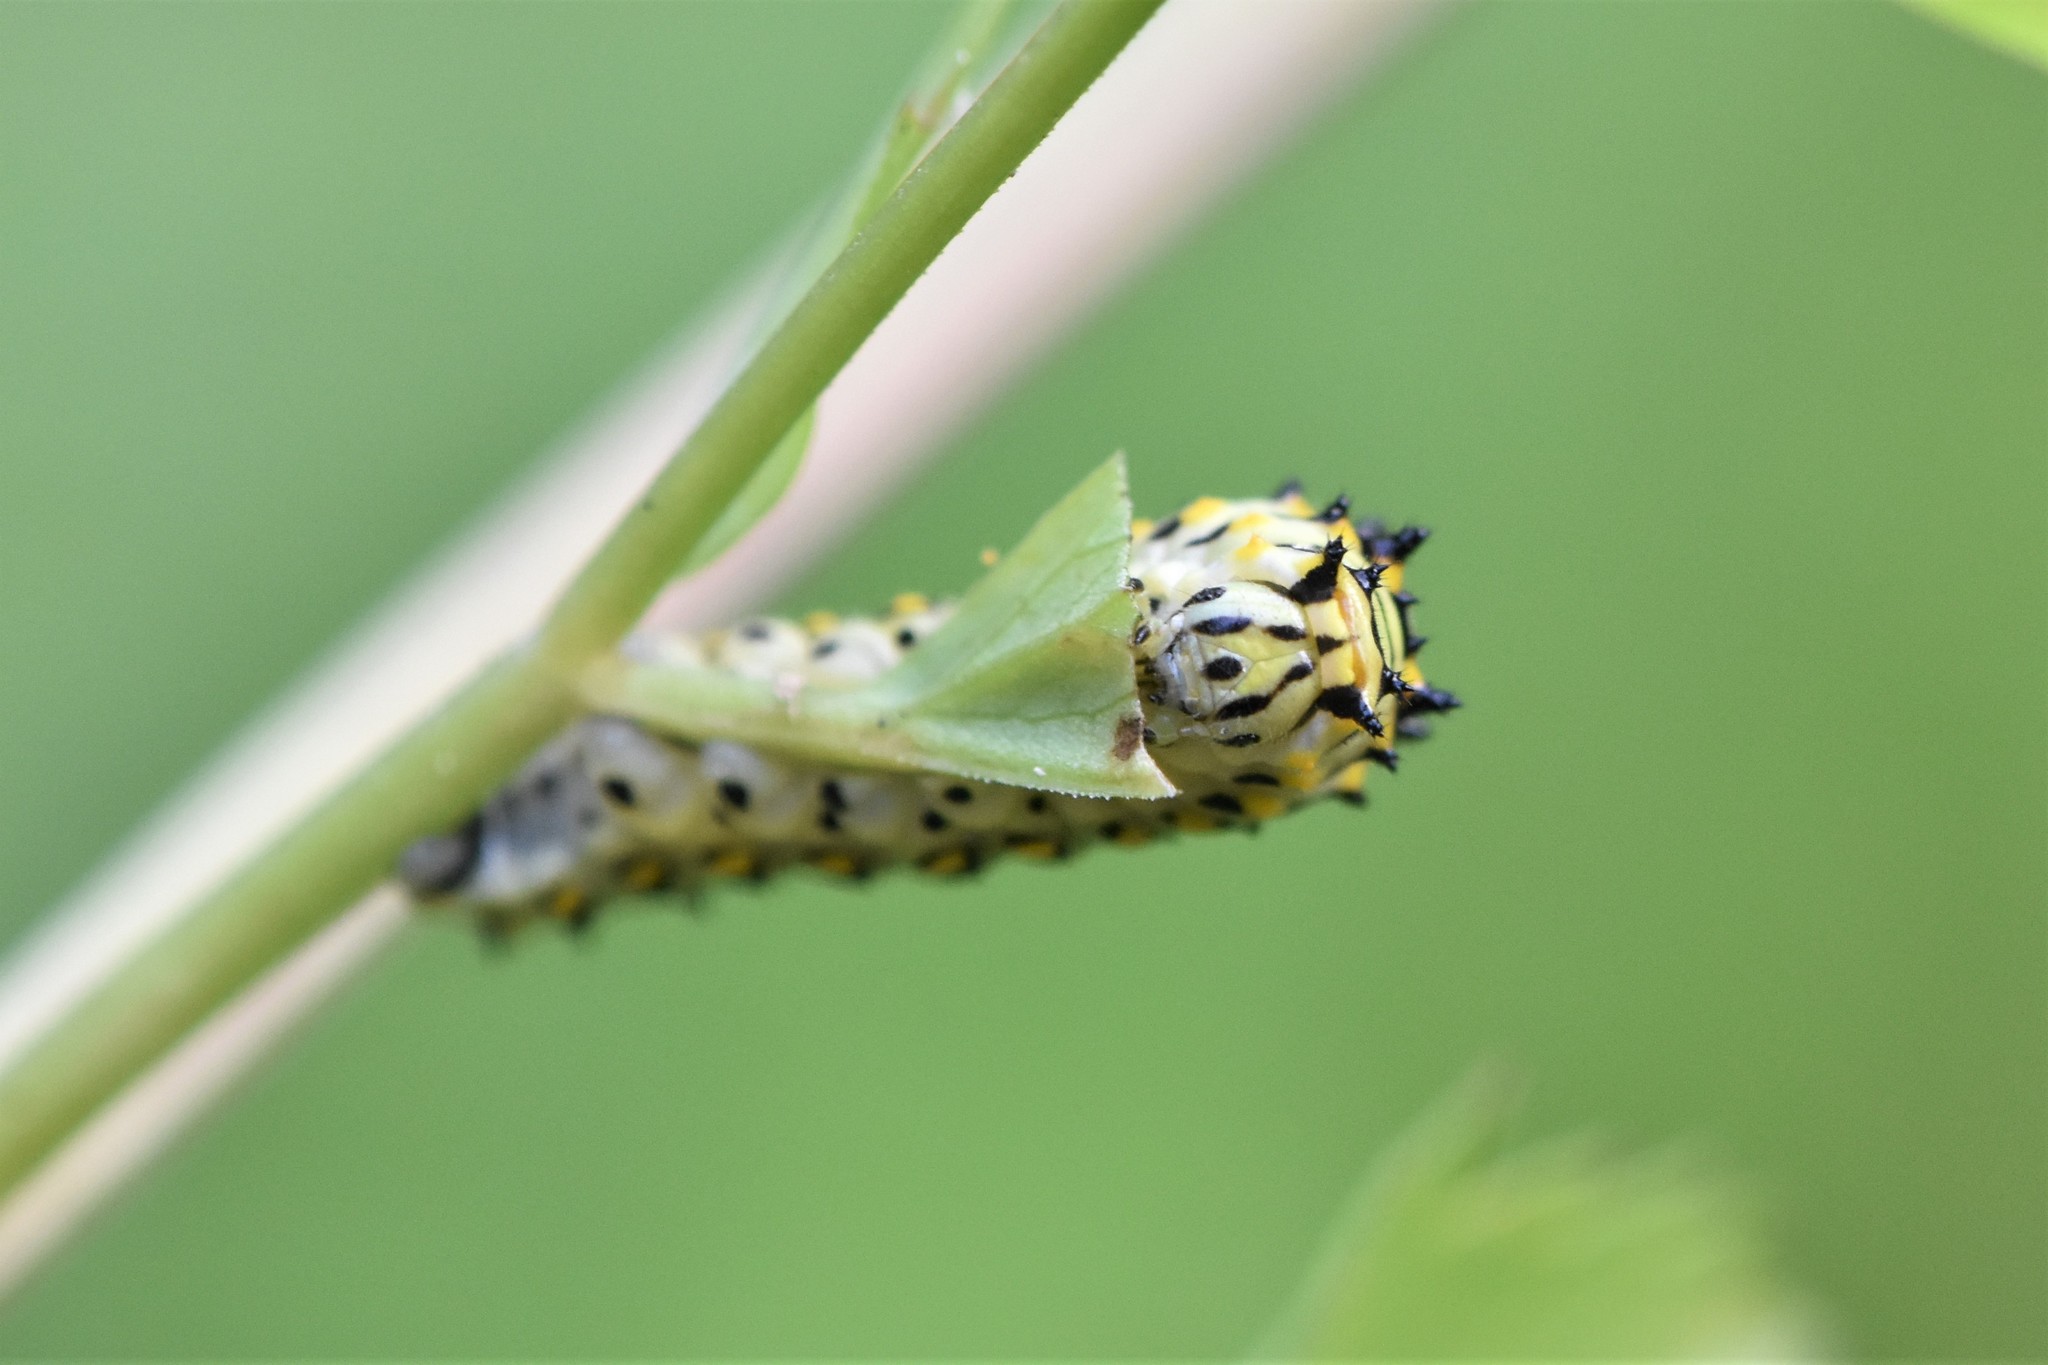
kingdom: Animalia
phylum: Arthropoda
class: Insecta
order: Lepidoptera
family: Papilionidae
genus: Papilio
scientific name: Papilio zelicaon
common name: Anise swallowtail
